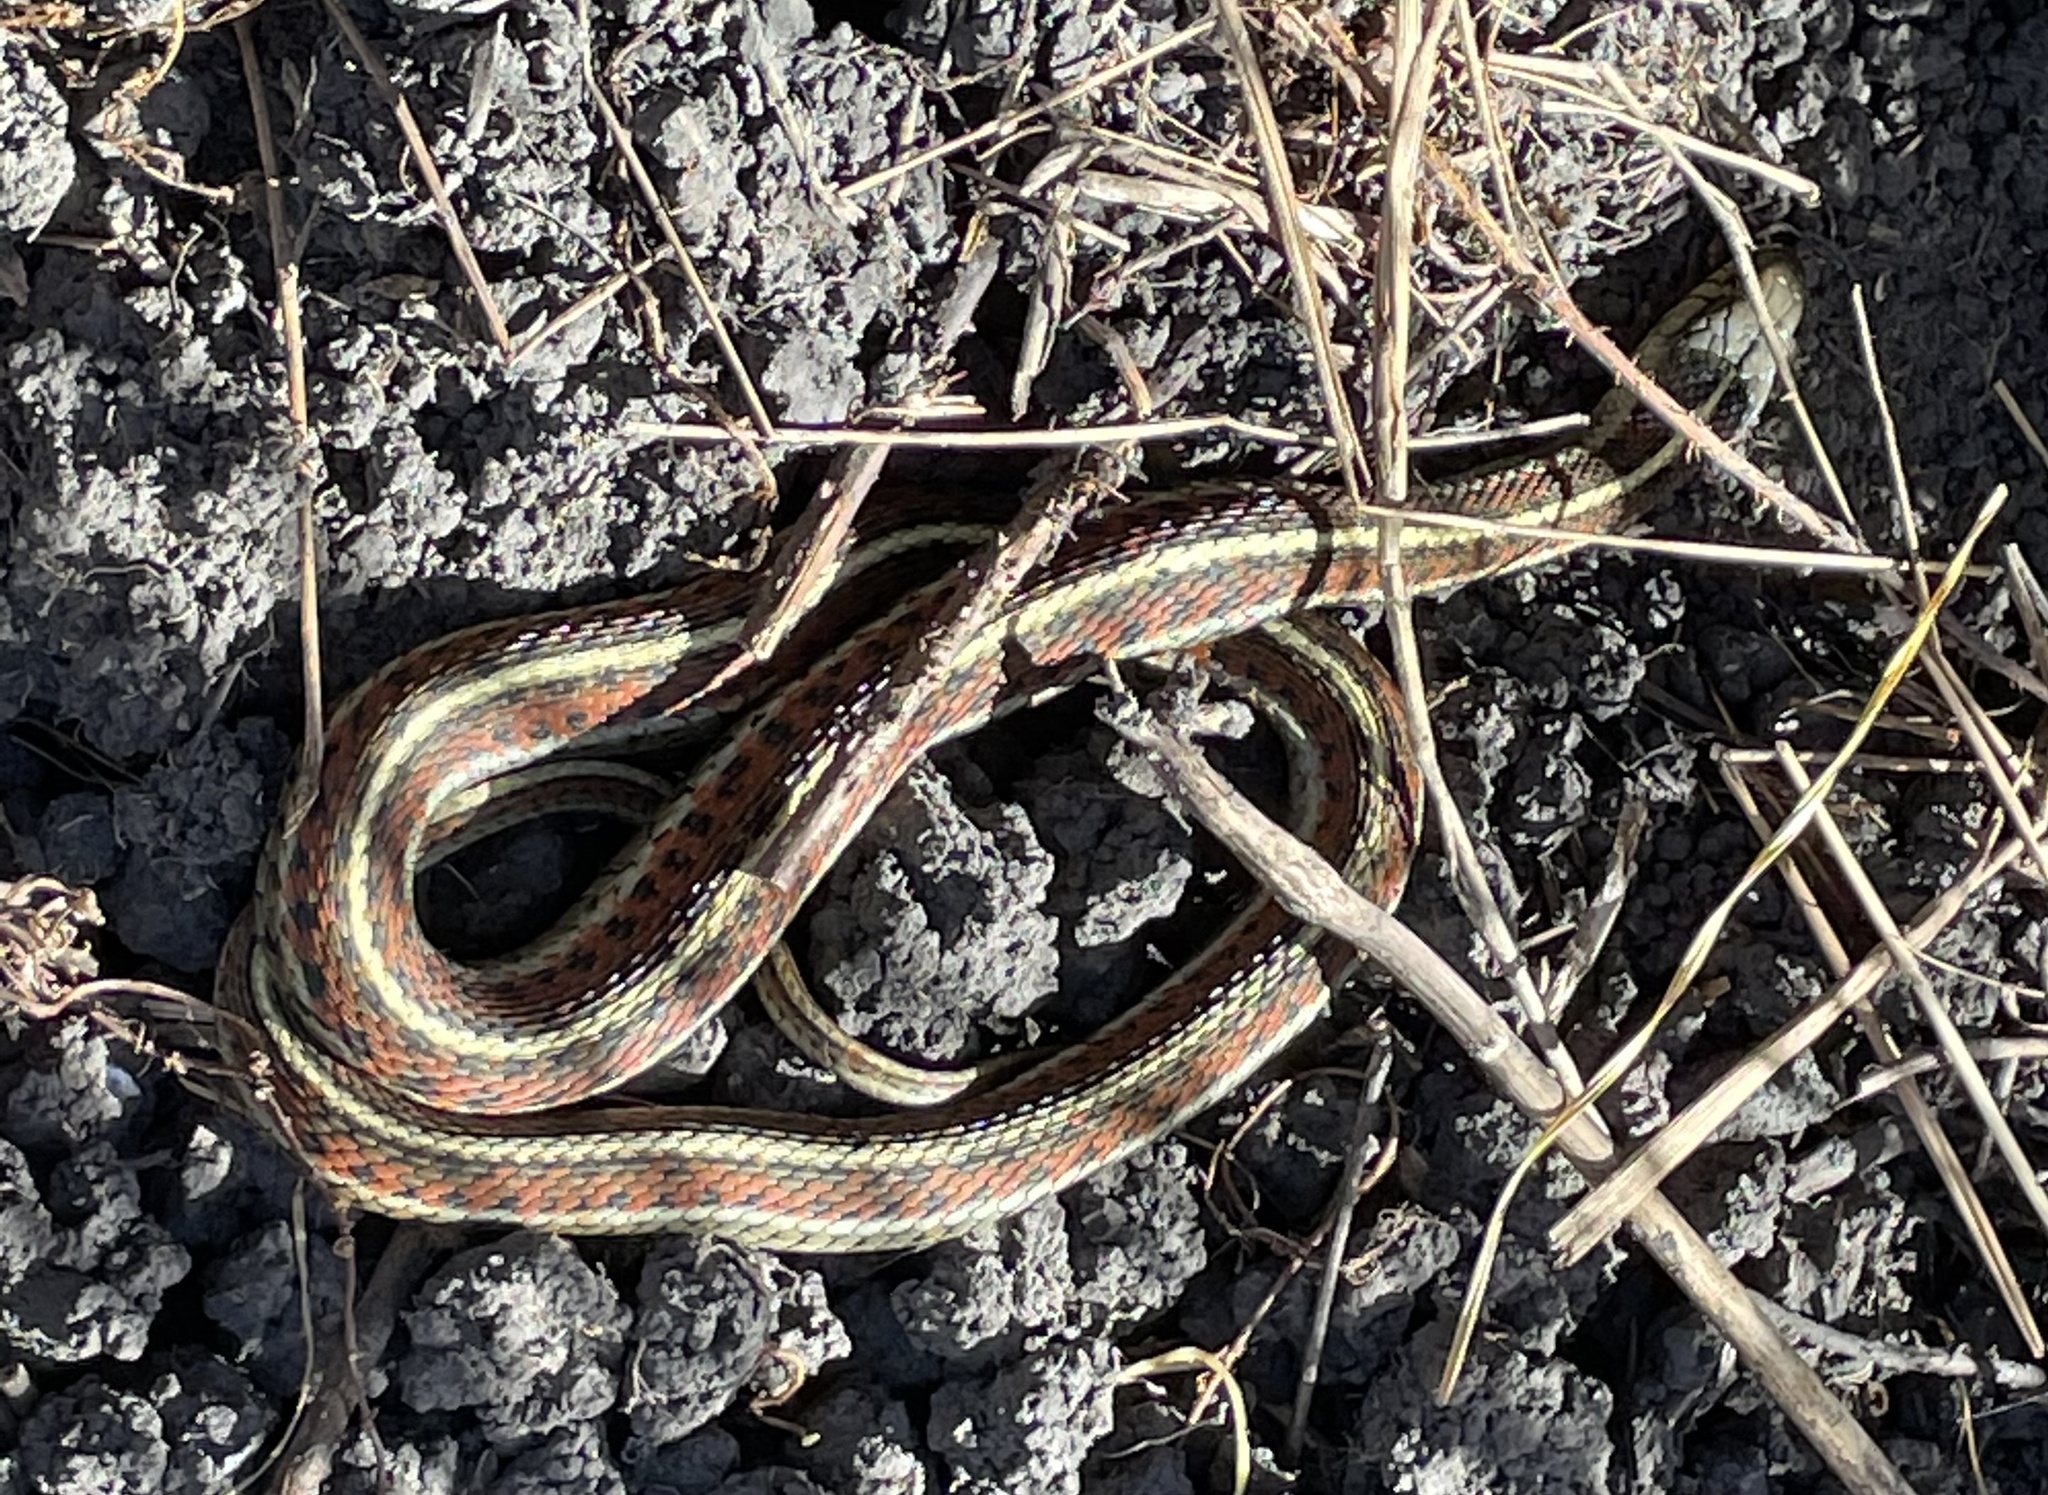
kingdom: Animalia
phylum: Chordata
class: Squamata
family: Colubridae
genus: Thamnophis
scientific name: Thamnophis elegans
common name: Western terrestrial garter snake
